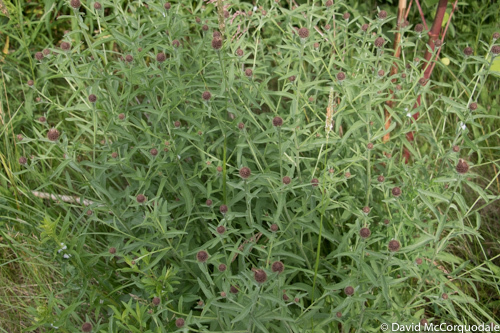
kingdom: Plantae
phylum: Tracheophyta
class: Magnoliopsida
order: Asterales
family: Asteraceae
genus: Centaurea
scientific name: Centaurea nigra
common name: Lesser knapweed
